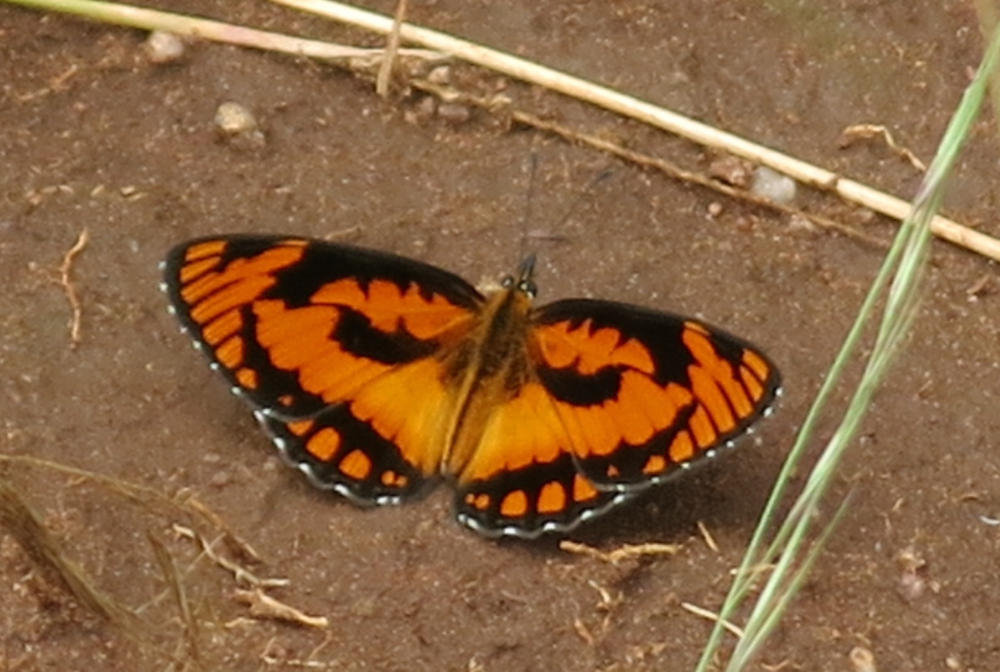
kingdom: Animalia
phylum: Arthropoda
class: Insecta
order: Lepidoptera
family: Nymphalidae
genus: Byblia
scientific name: Byblia acheloia
